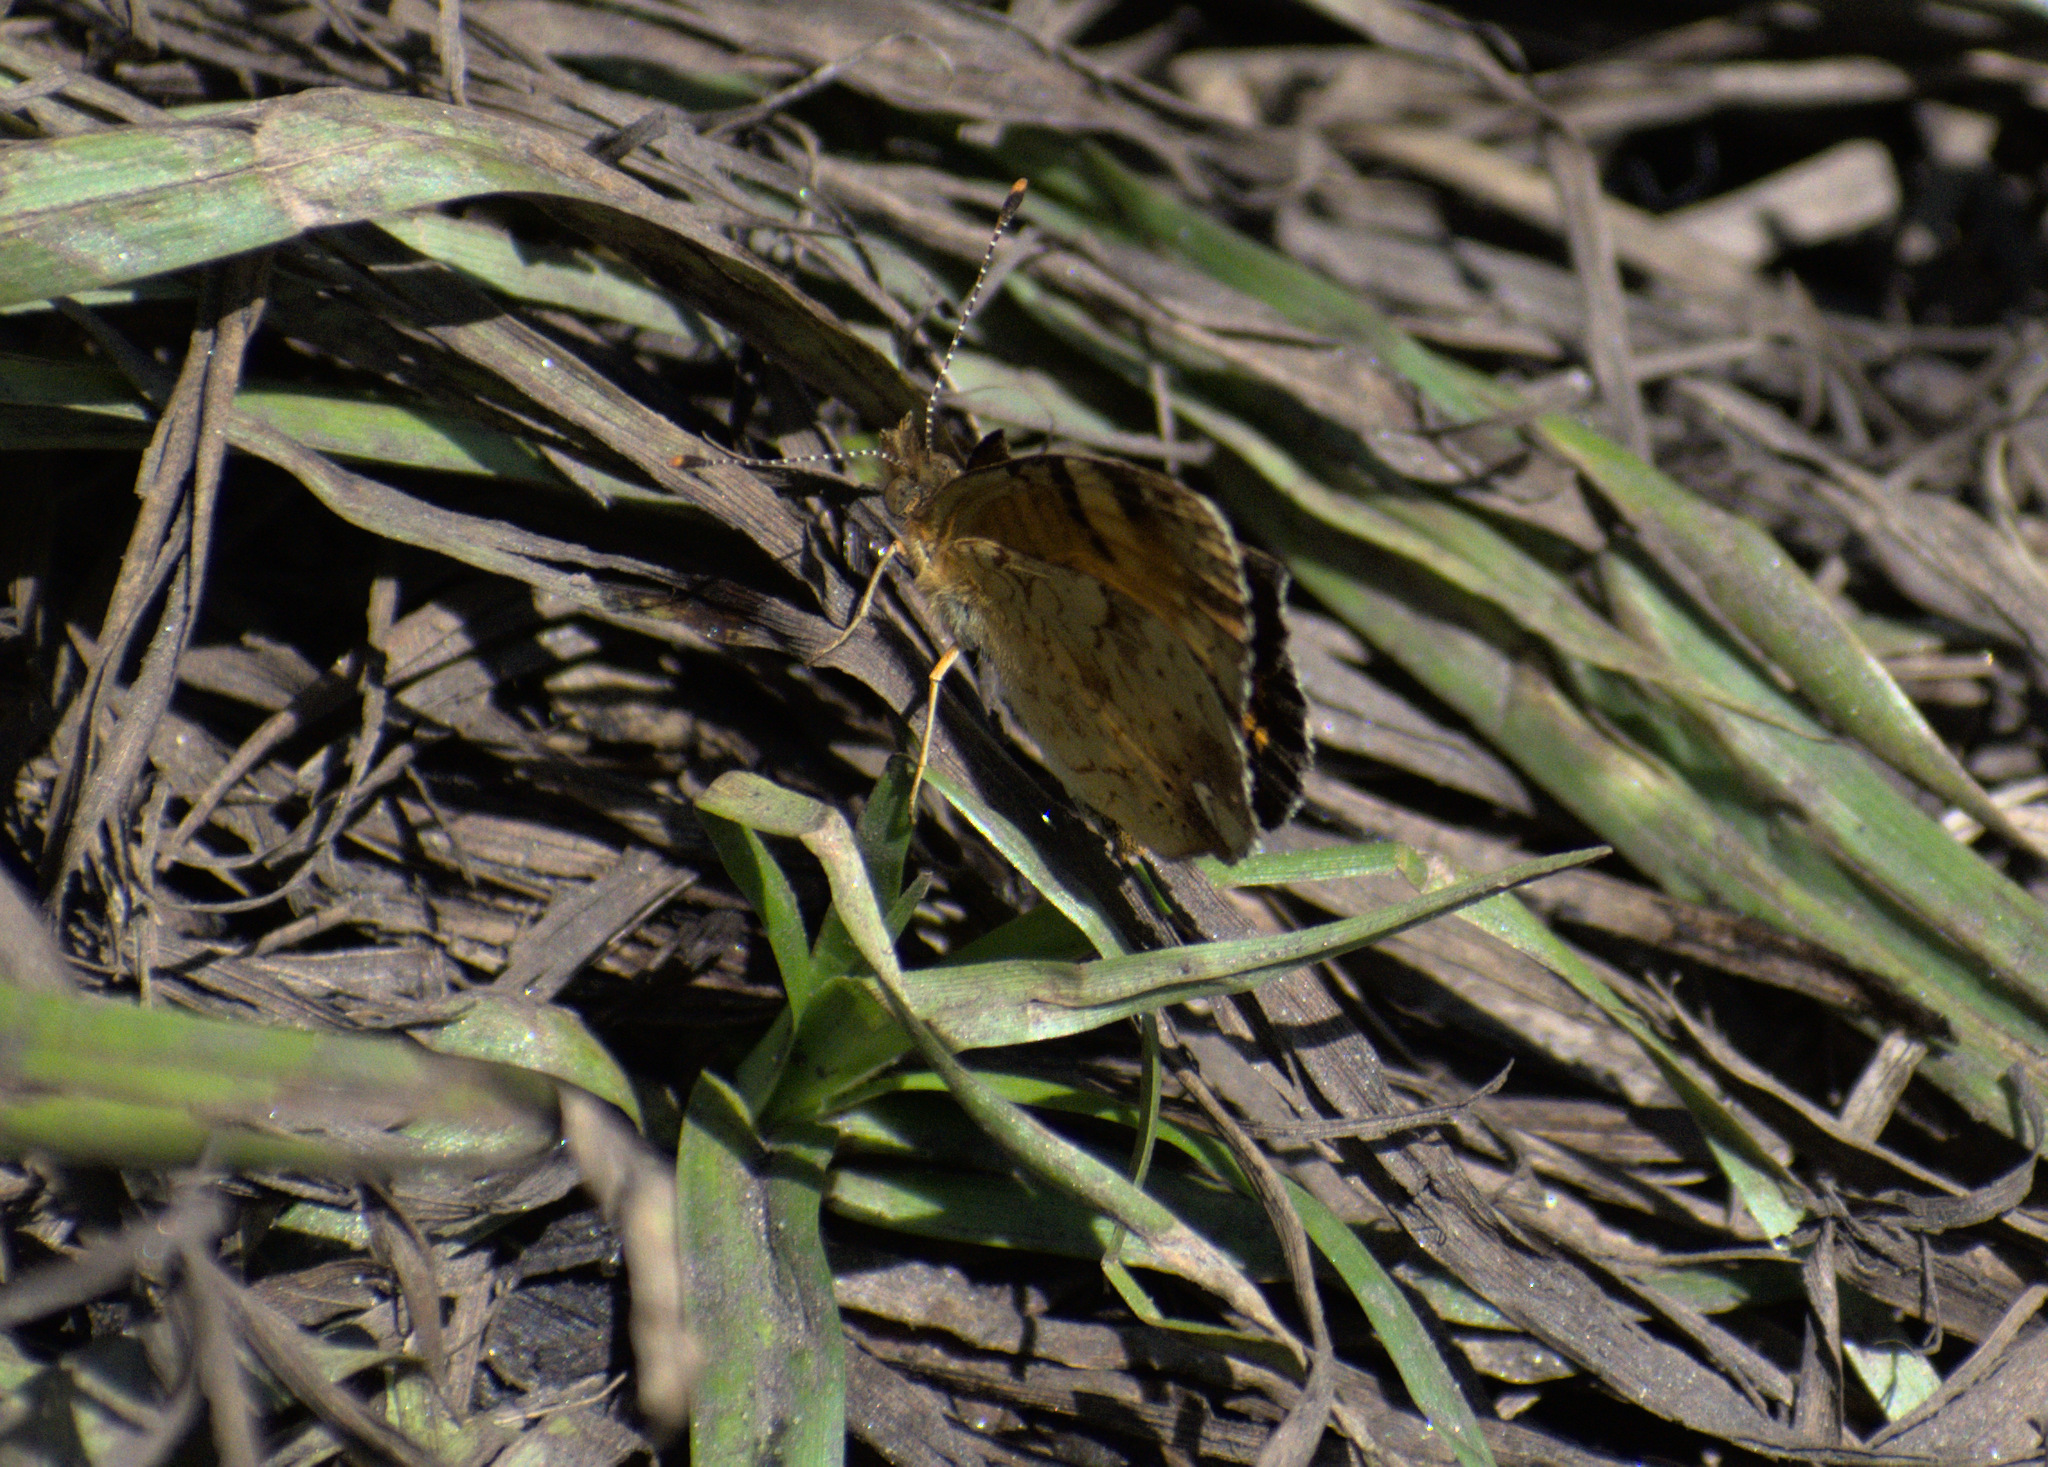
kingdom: Animalia
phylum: Arthropoda
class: Insecta
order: Lepidoptera
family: Nymphalidae
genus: Phyciodes
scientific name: Phyciodes tharos
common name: Pearl crescent
